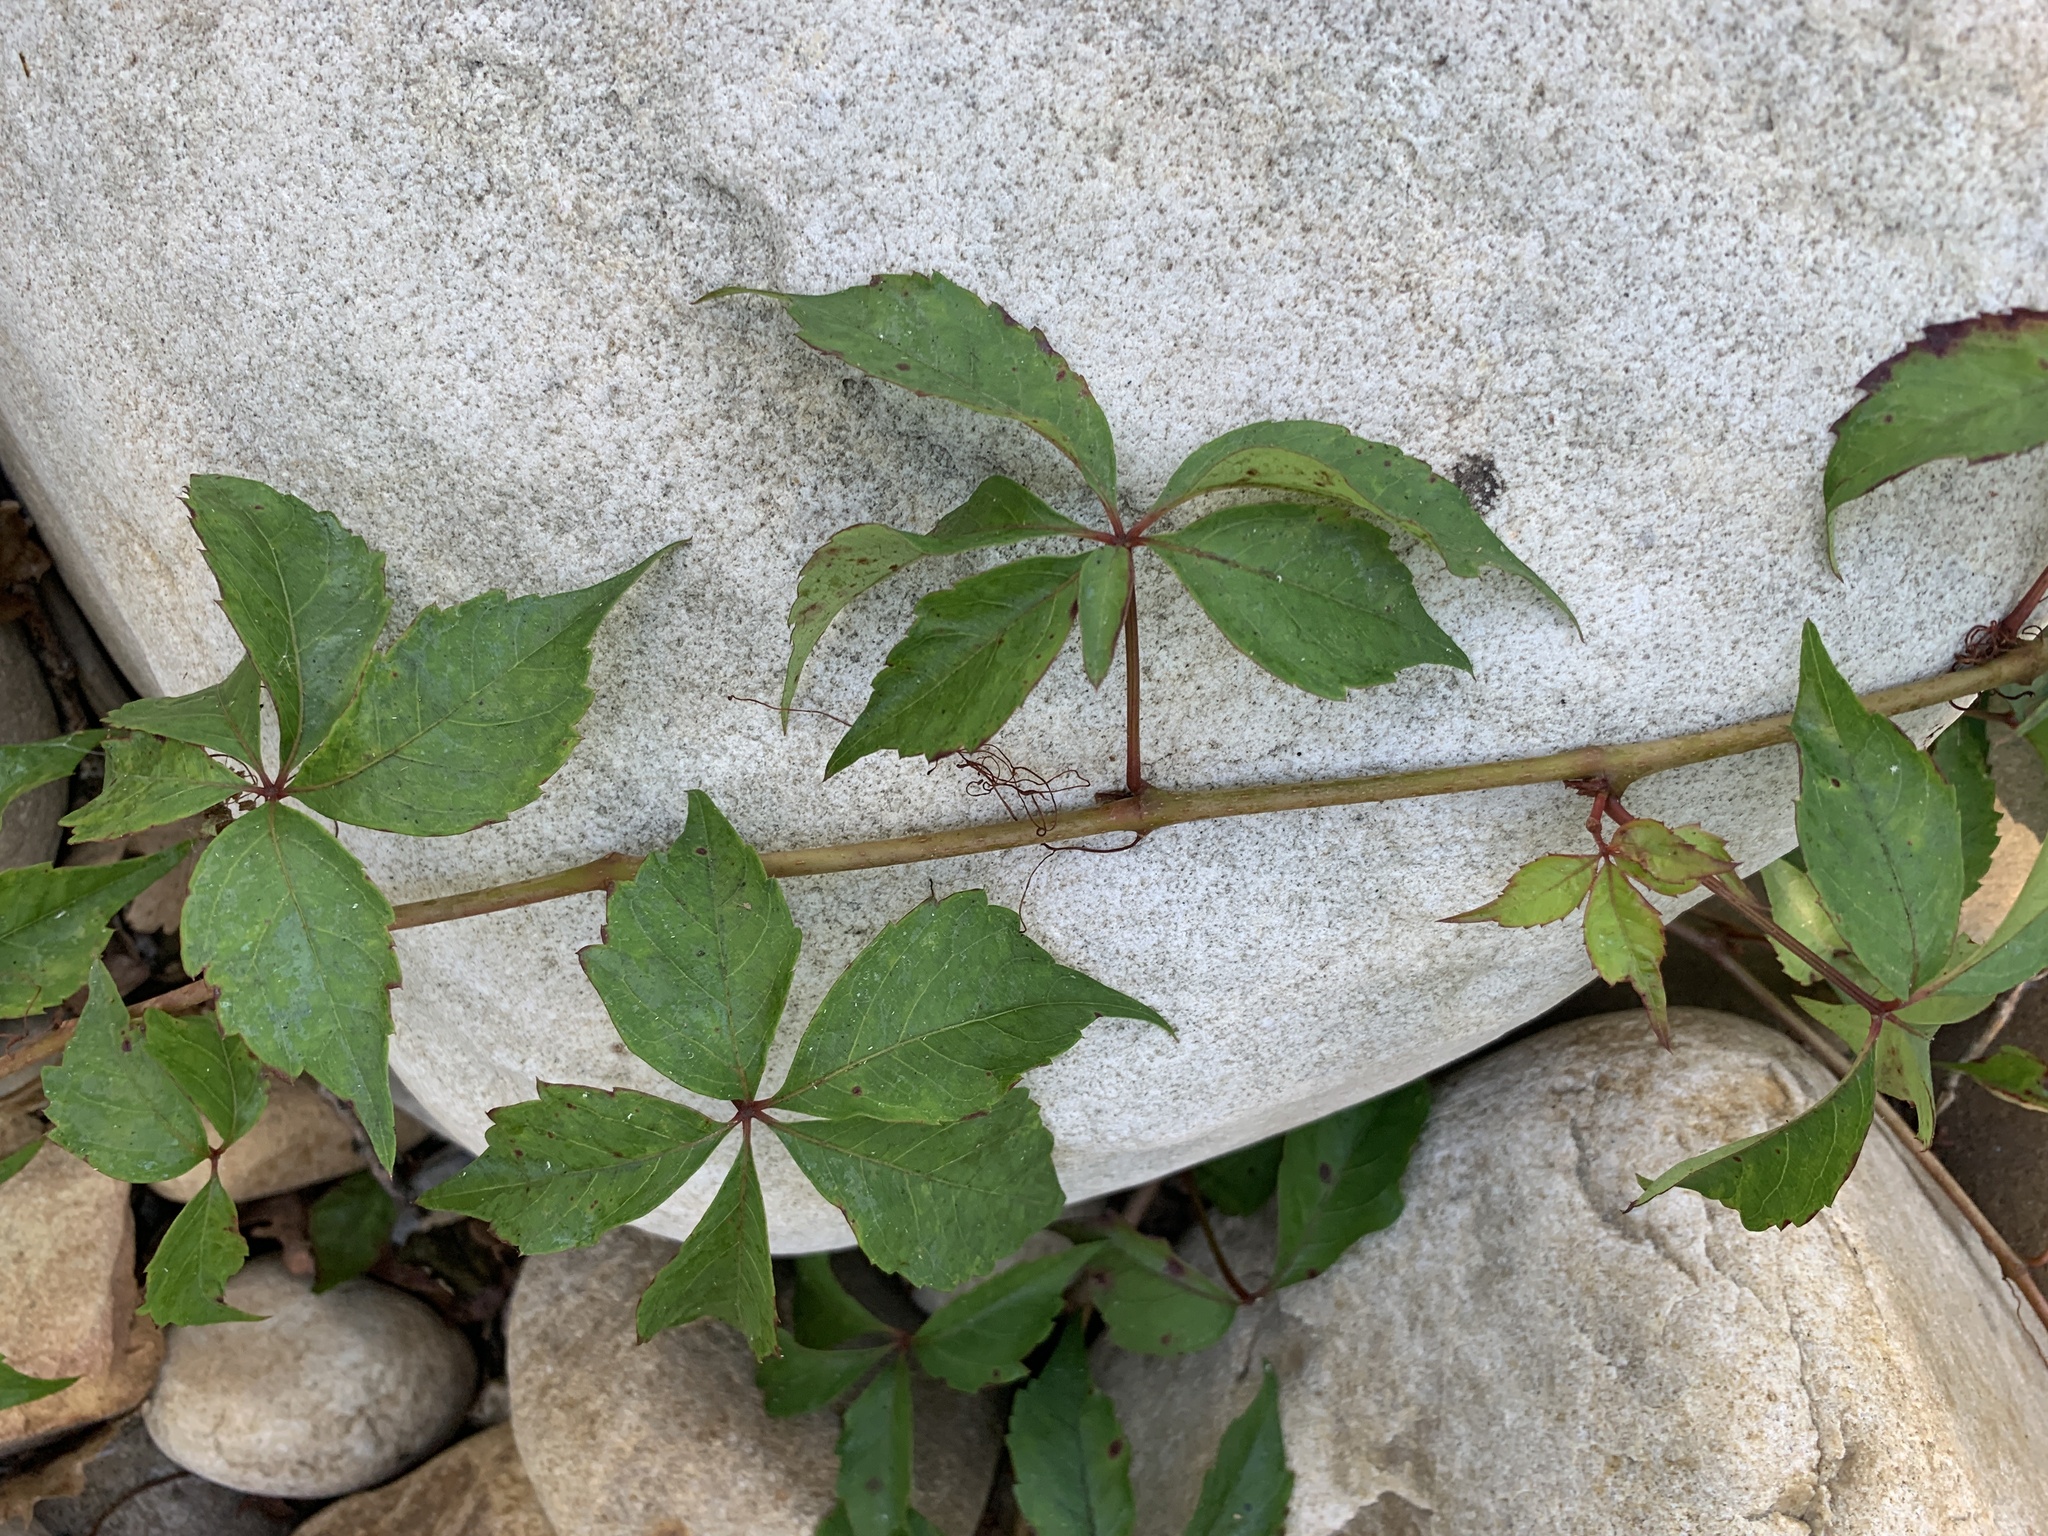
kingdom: Plantae
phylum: Tracheophyta
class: Magnoliopsida
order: Vitales
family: Vitaceae
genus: Parthenocissus
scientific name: Parthenocissus quinquefolia
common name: Virginia-creeper
